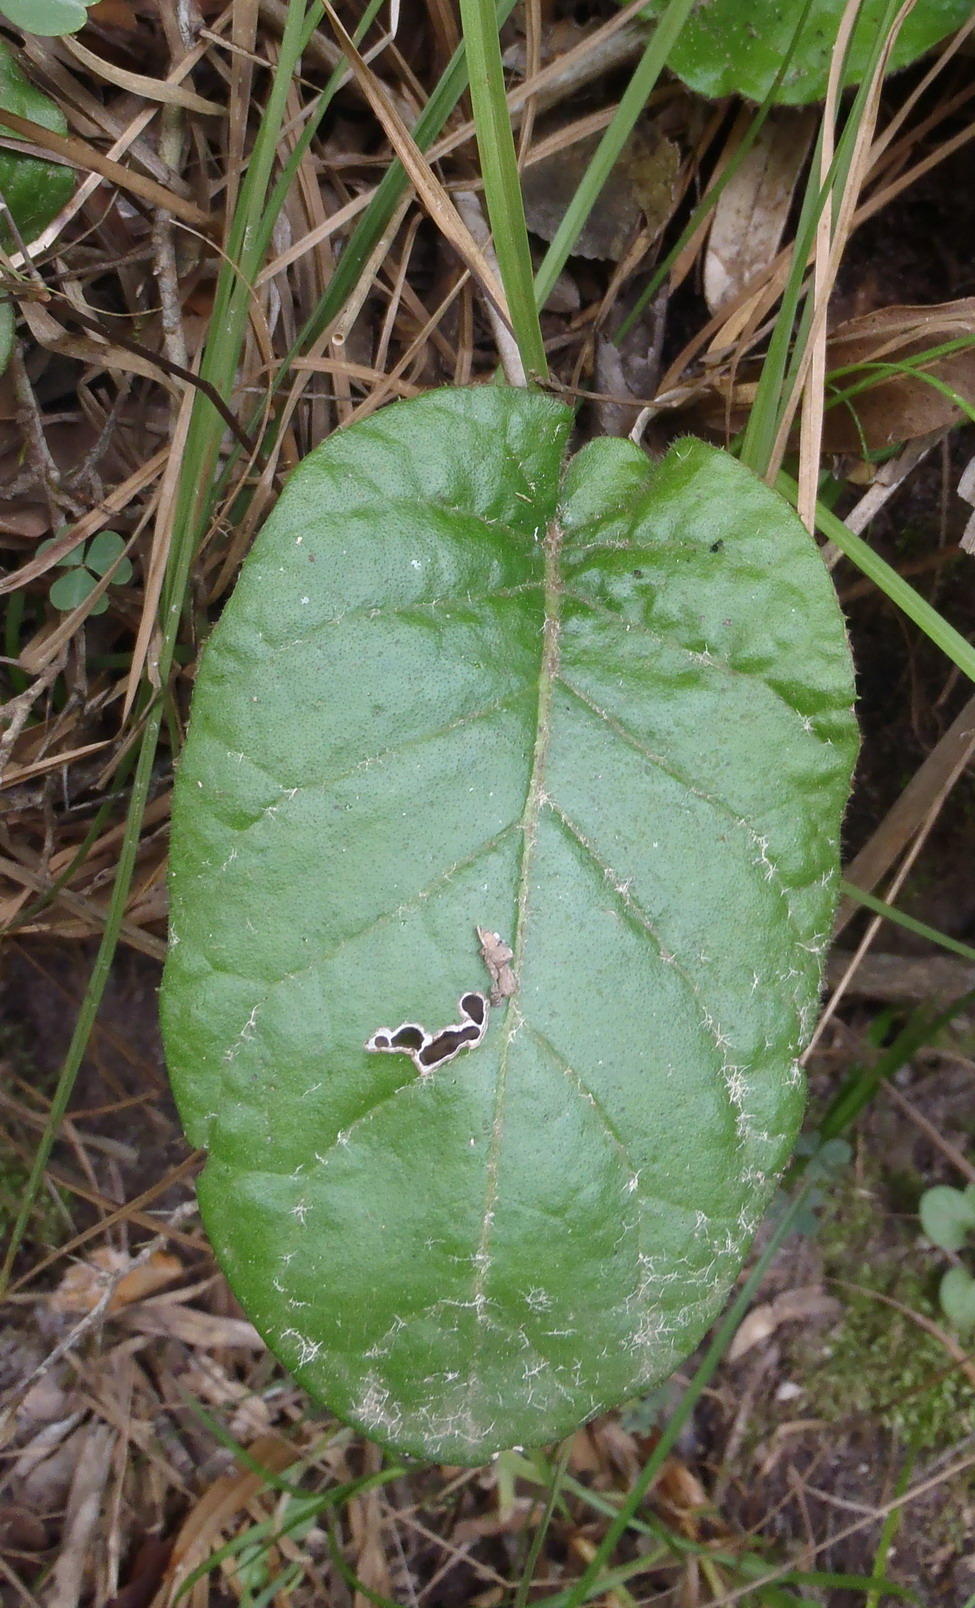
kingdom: Plantae
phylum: Tracheophyta
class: Magnoliopsida
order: Asterales
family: Asteraceae
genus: Piloselloides
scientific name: Piloselloides cordata
